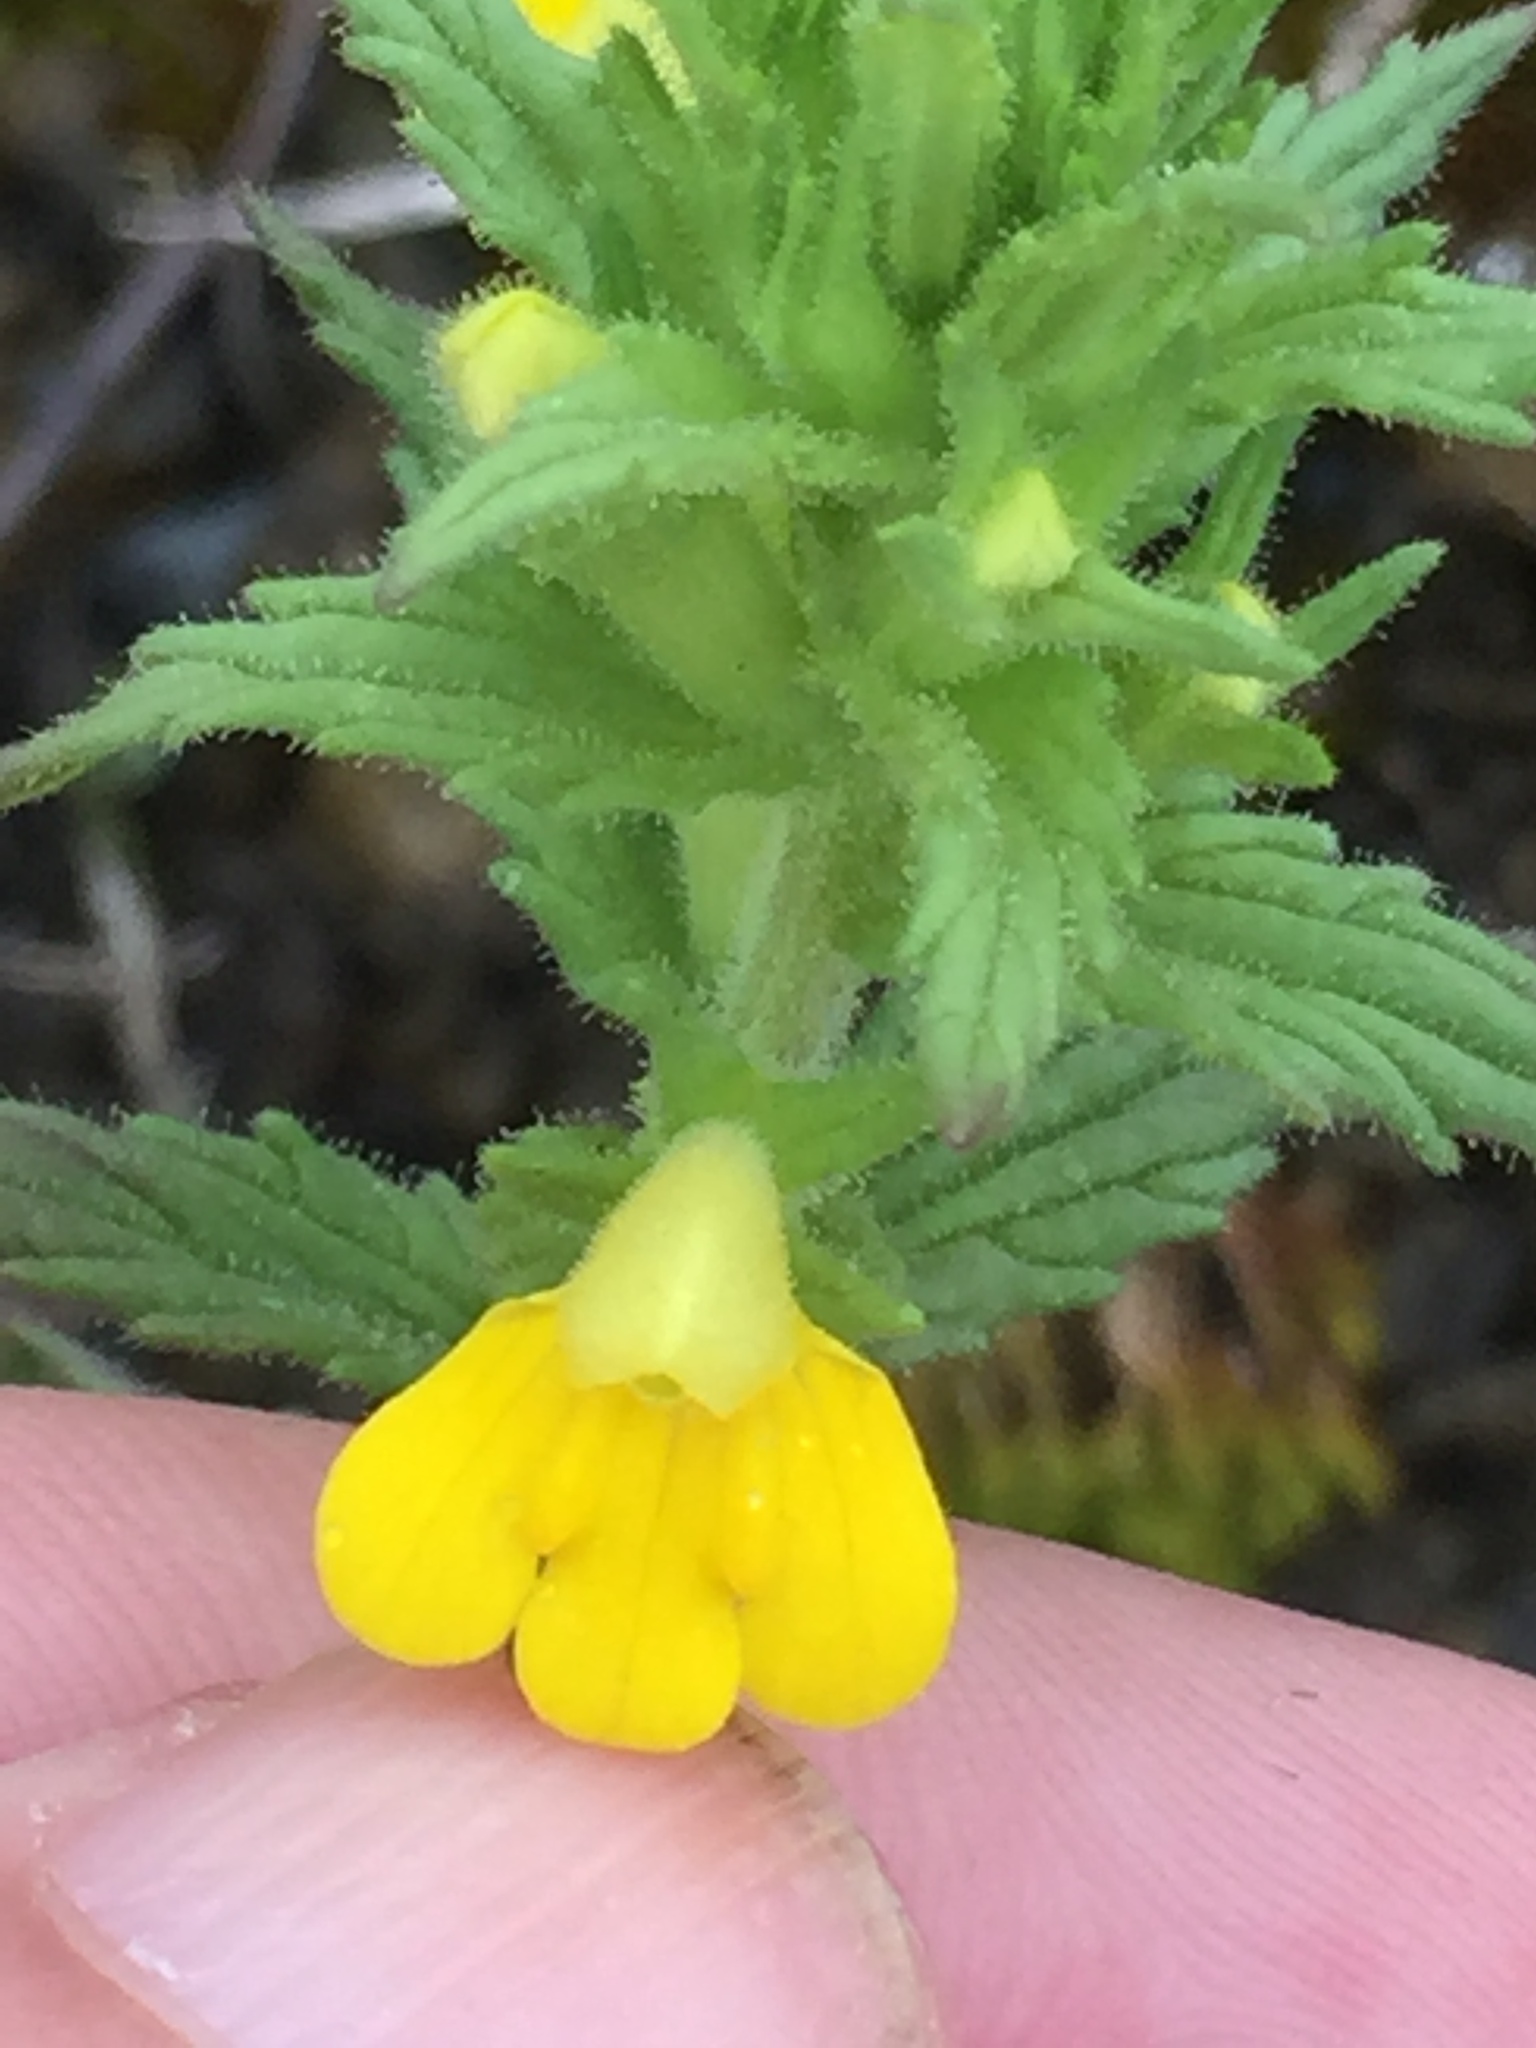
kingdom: Plantae
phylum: Tracheophyta
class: Magnoliopsida
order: Lamiales
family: Orobanchaceae
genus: Bellardia
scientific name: Bellardia viscosa
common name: Sticky parentucellia
